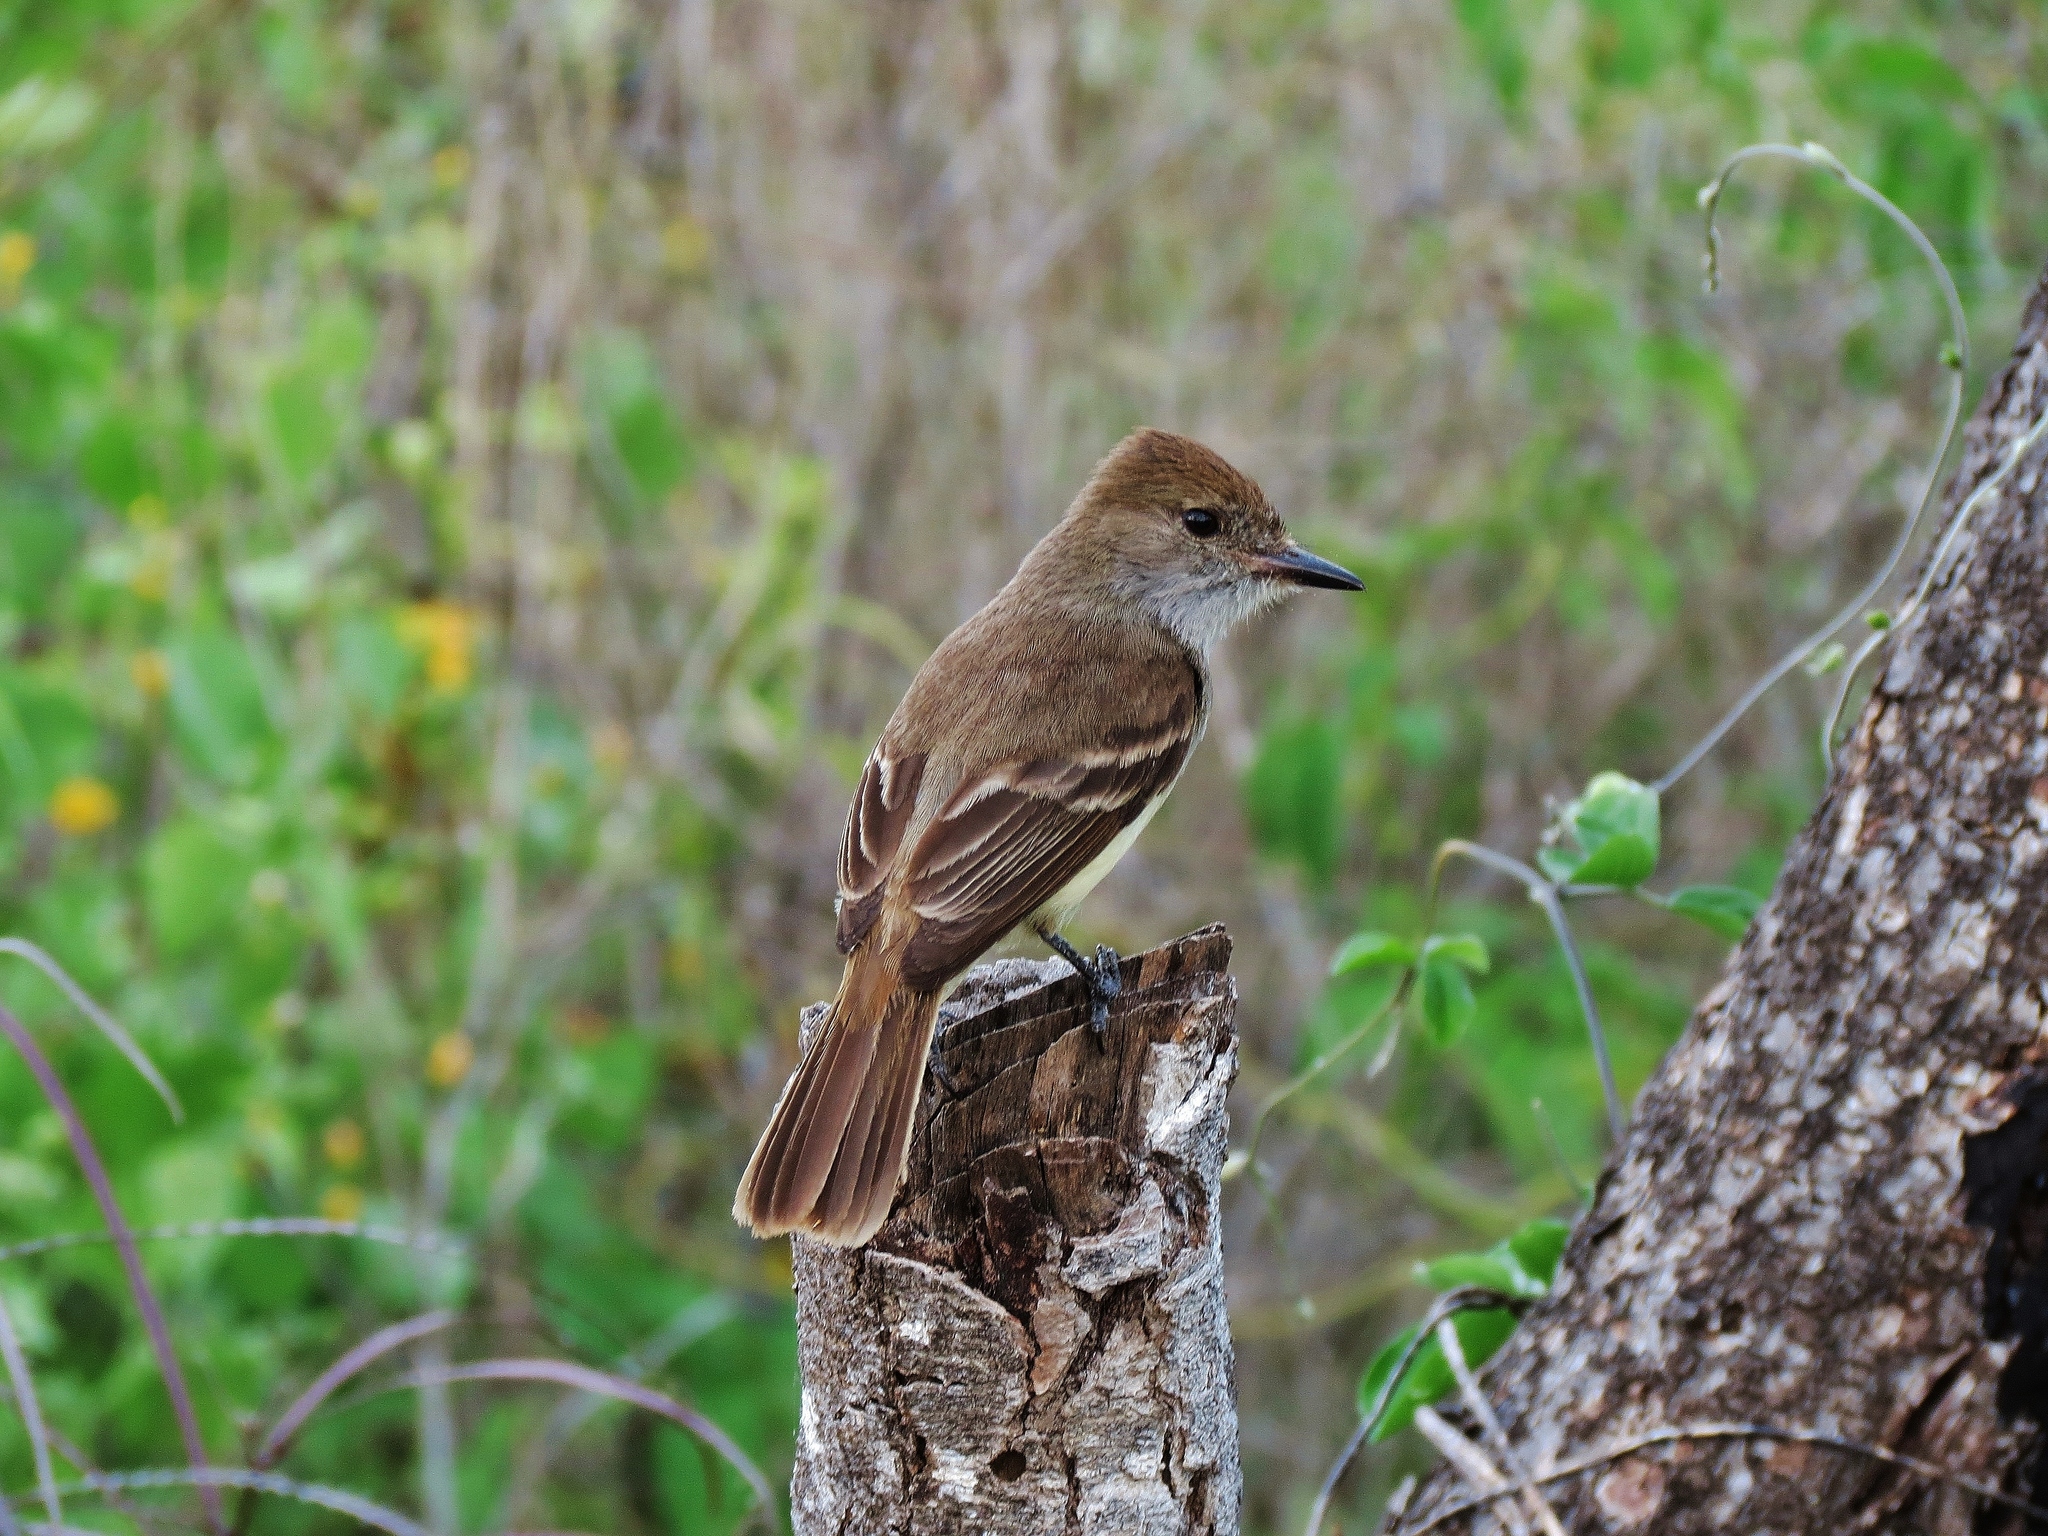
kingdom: Animalia
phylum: Chordata
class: Aves
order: Passeriformes
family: Tyrannidae
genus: Myiarchus
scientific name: Myiarchus magnirostris
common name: Galapagos flycatcher
